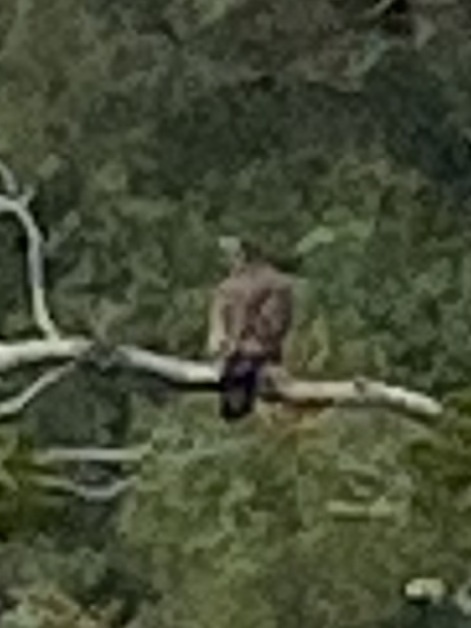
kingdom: Animalia
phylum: Chordata
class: Aves
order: Accipitriformes
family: Accipitridae
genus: Haliaeetus
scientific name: Haliaeetus leucocephalus
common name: Bald eagle
